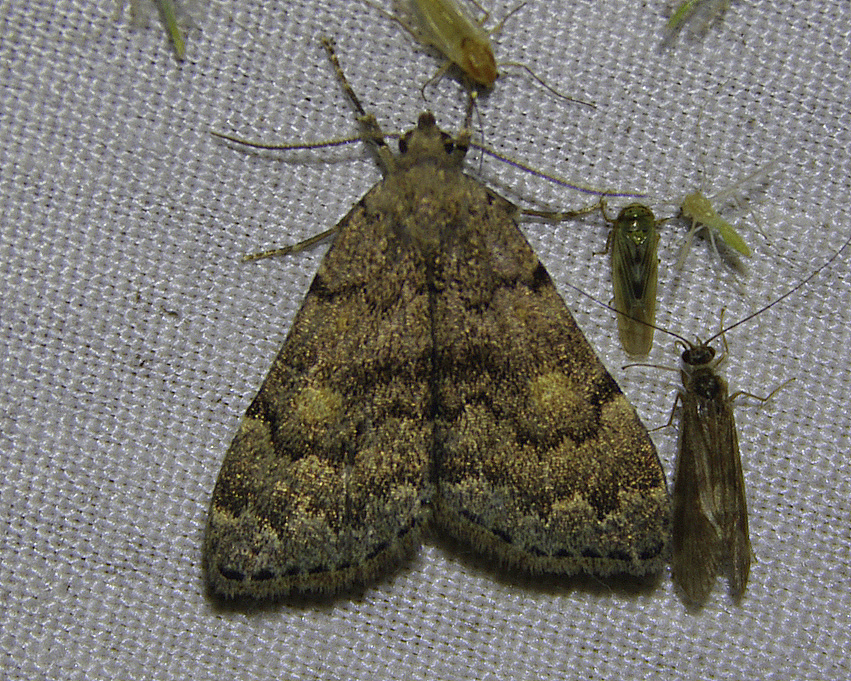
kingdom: Animalia
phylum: Arthropoda
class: Insecta
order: Lepidoptera
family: Erebidae
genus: Idia
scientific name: Idia aemula
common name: Common idia moth
